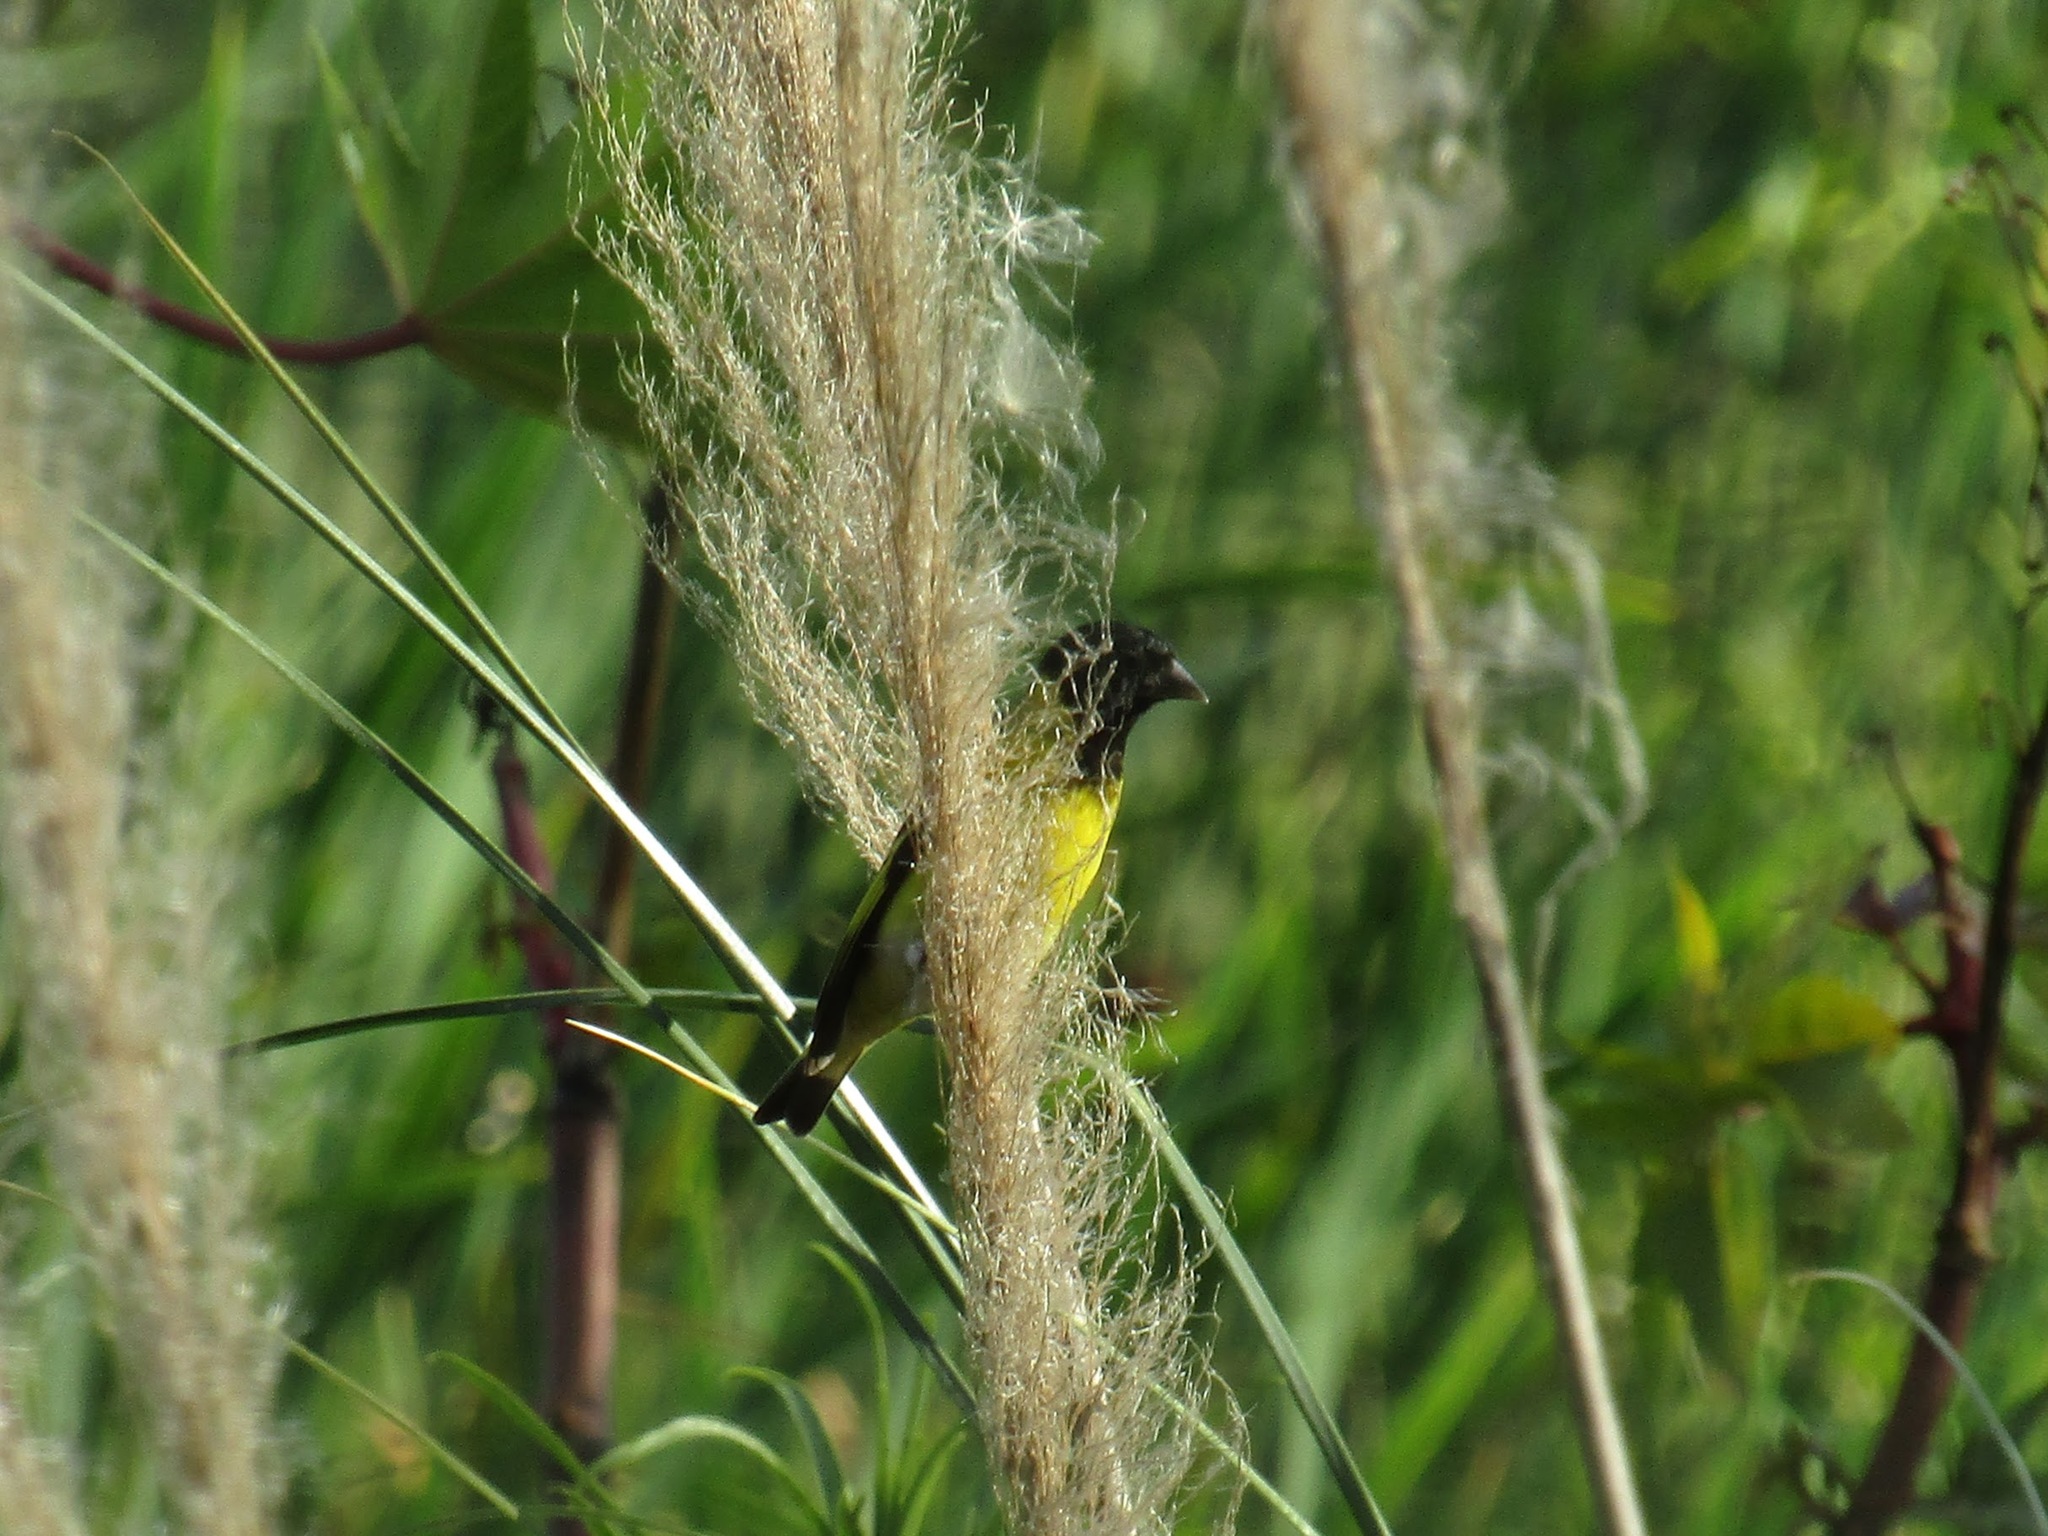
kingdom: Animalia
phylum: Chordata
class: Aves
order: Passeriformes
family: Fringillidae
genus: Spinus
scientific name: Spinus magellanicus
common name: Hooded siskin
